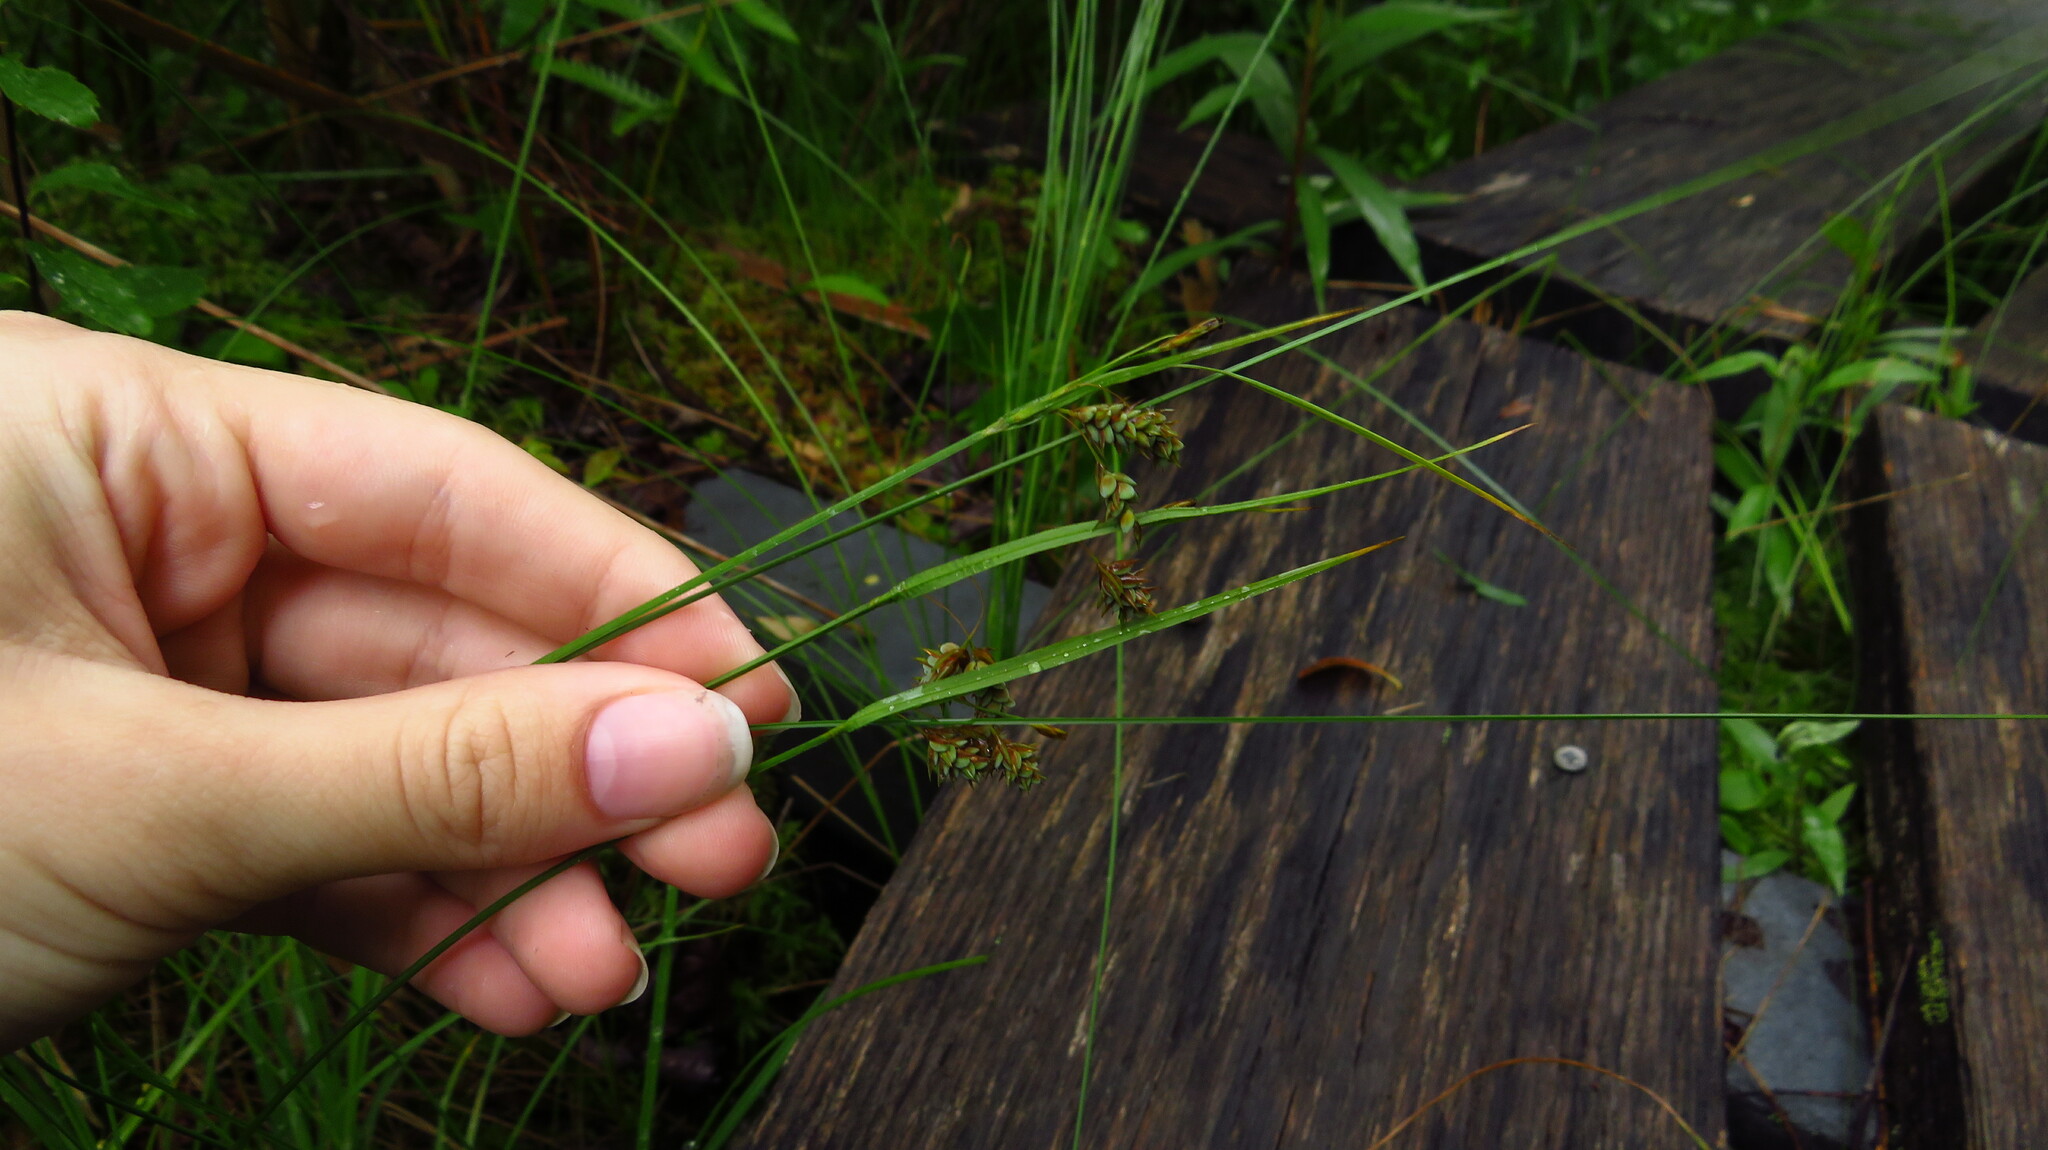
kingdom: Plantae
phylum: Tracheophyta
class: Liliopsida
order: Poales
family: Cyperaceae
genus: Carex
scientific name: Carex magellanica
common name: Bog sedge
